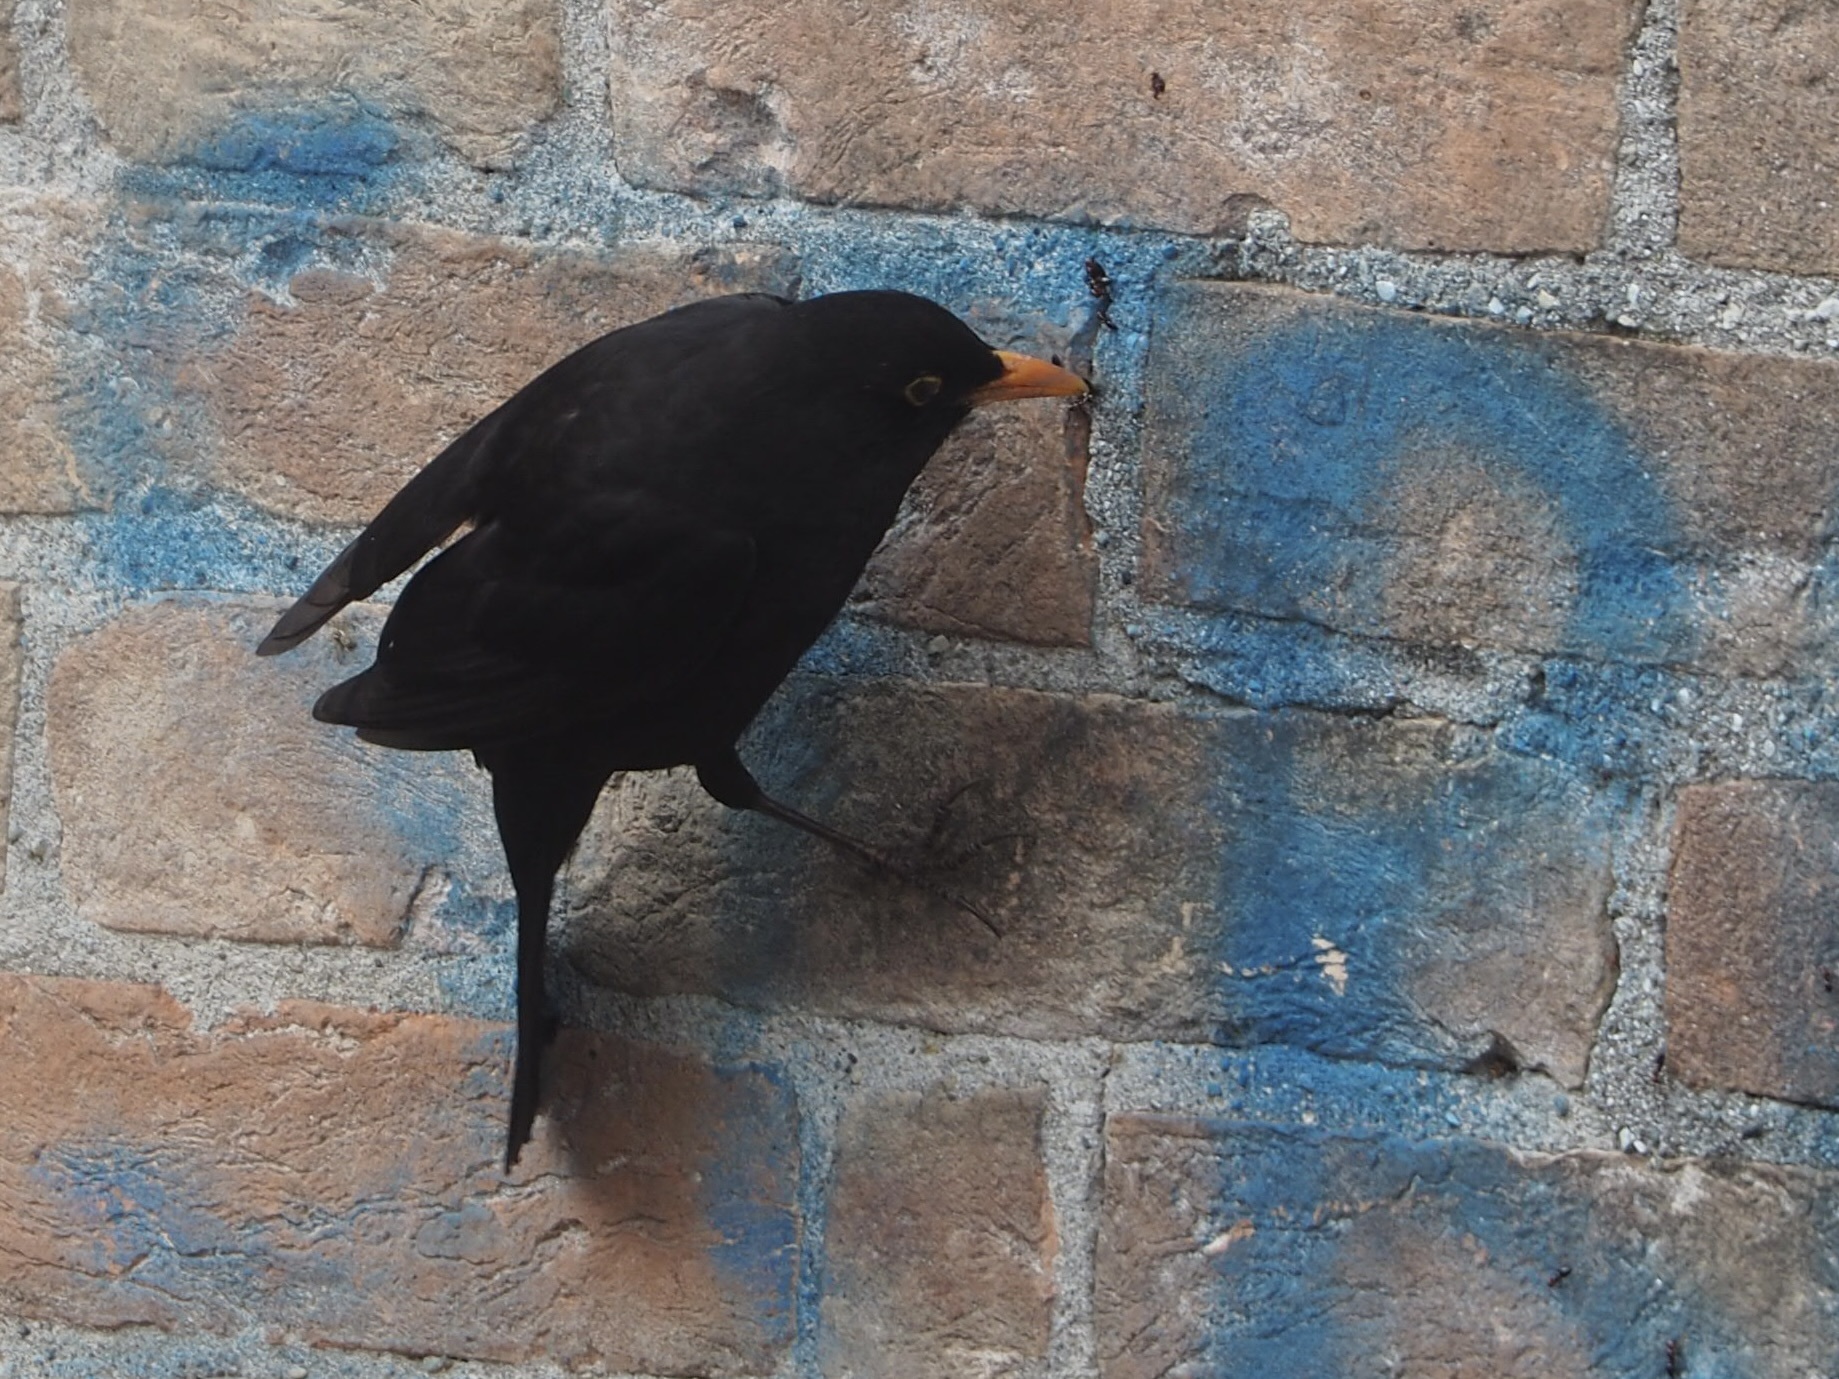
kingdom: Animalia
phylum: Chordata
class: Aves
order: Passeriformes
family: Turdidae
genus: Turdus
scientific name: Turdus merula
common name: Common blackbird
